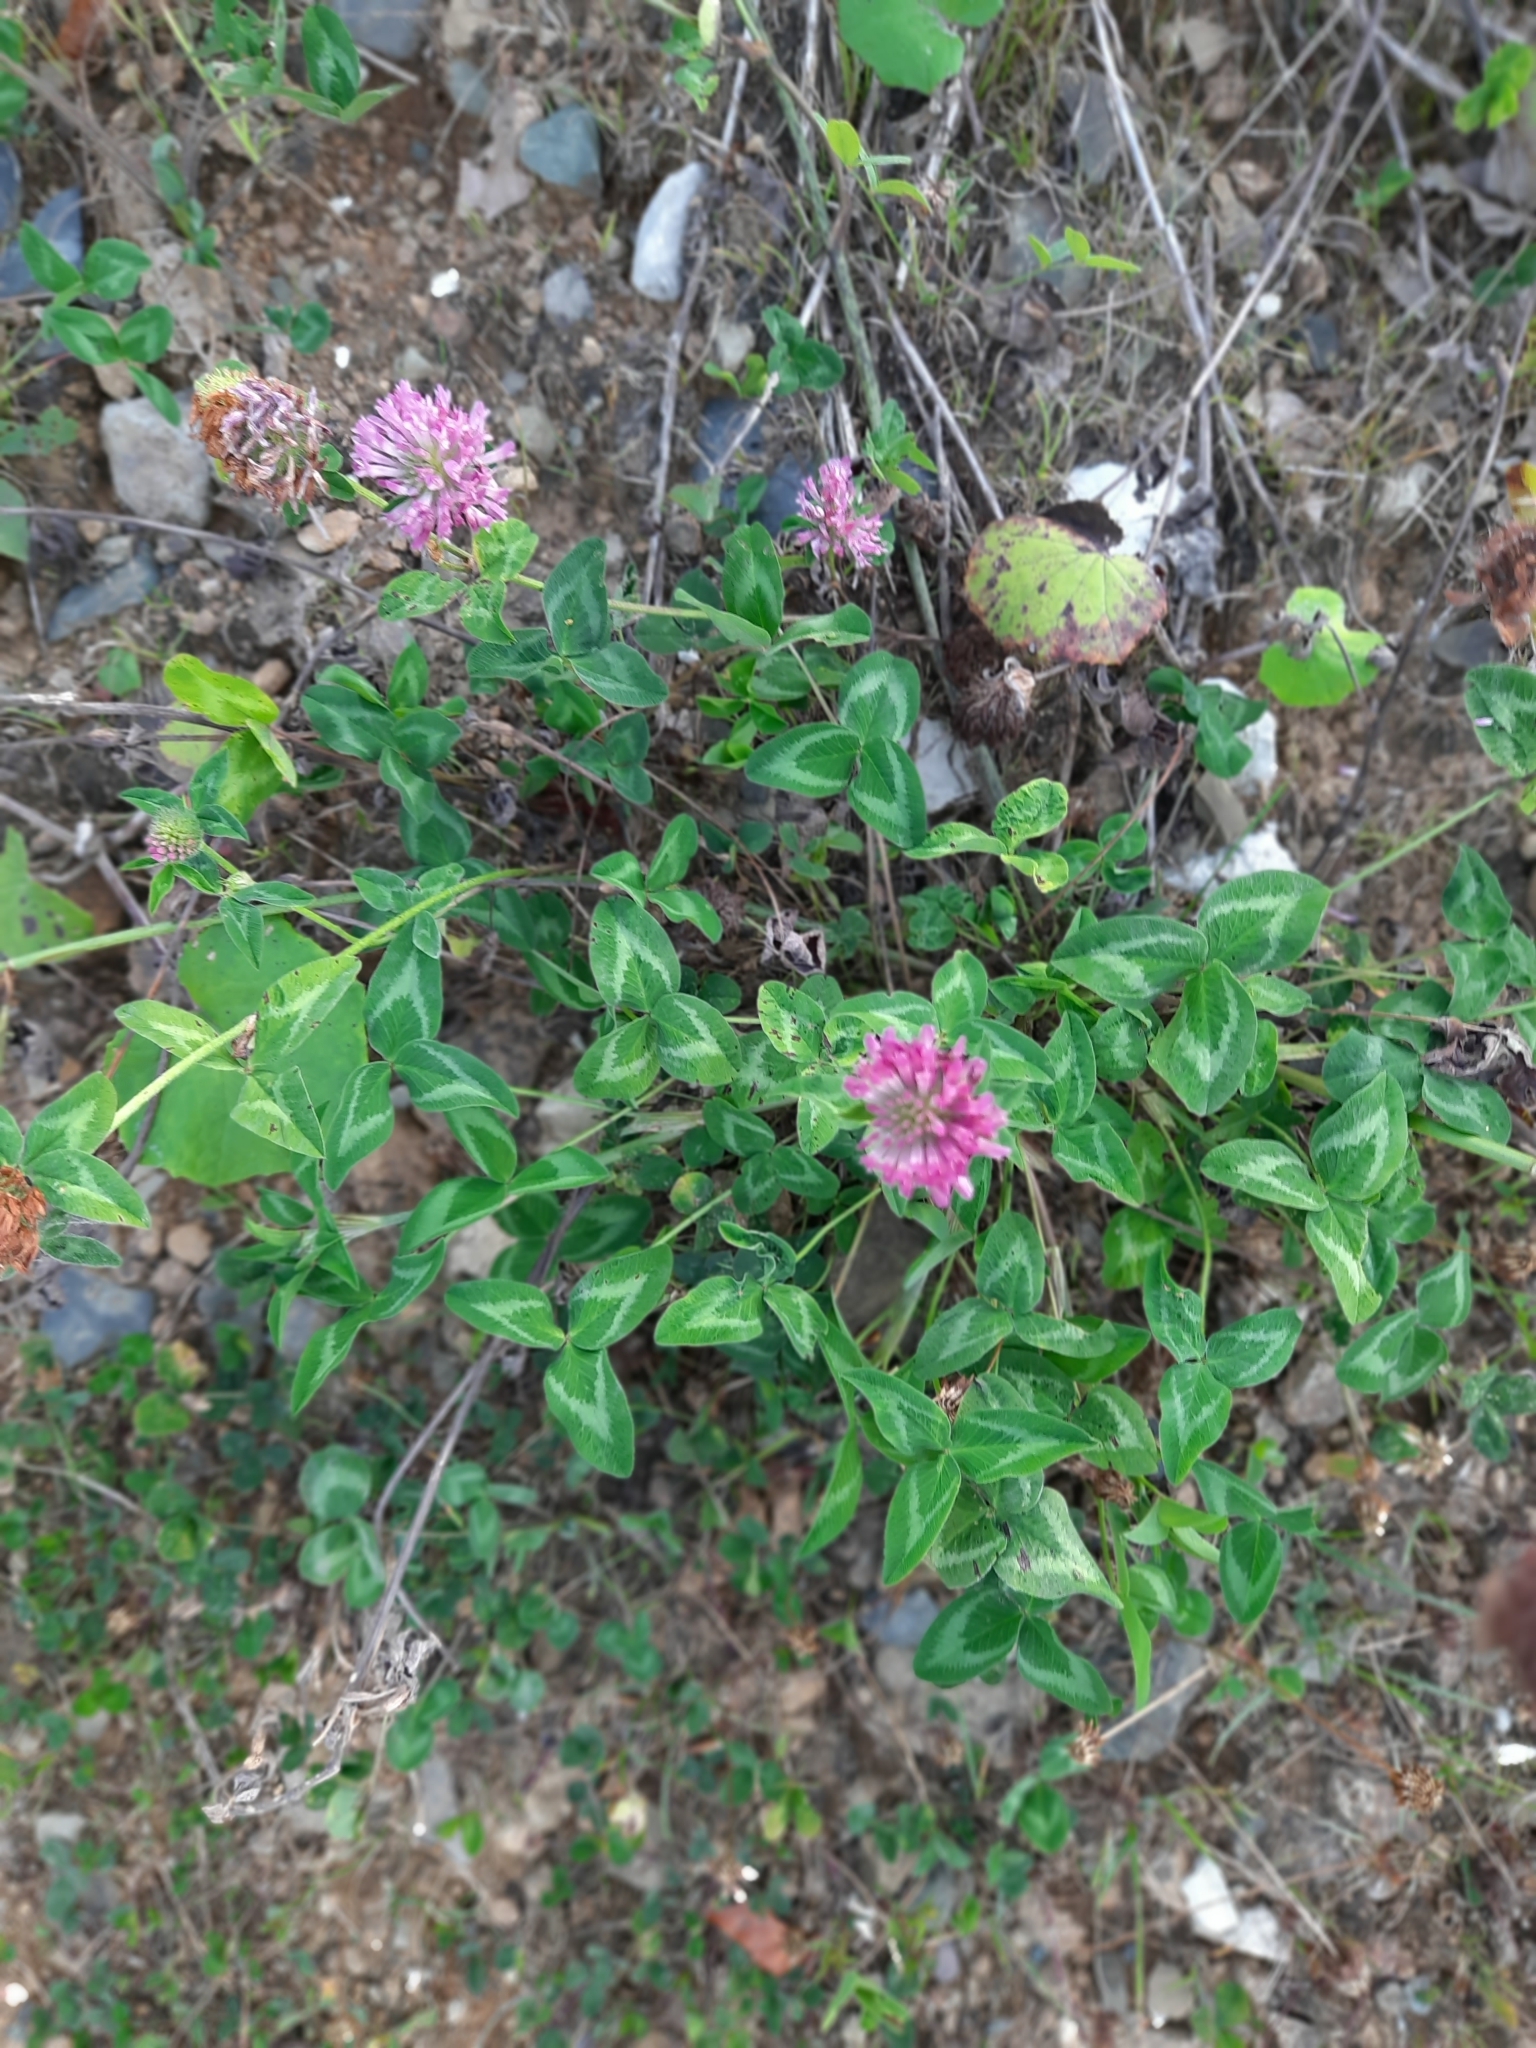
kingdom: Plantae
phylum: Tracheophyta
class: Magnoliopsida
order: Fabales
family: Fabaceae
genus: Trifolium
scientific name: Trifolium pratense
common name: Red clover
